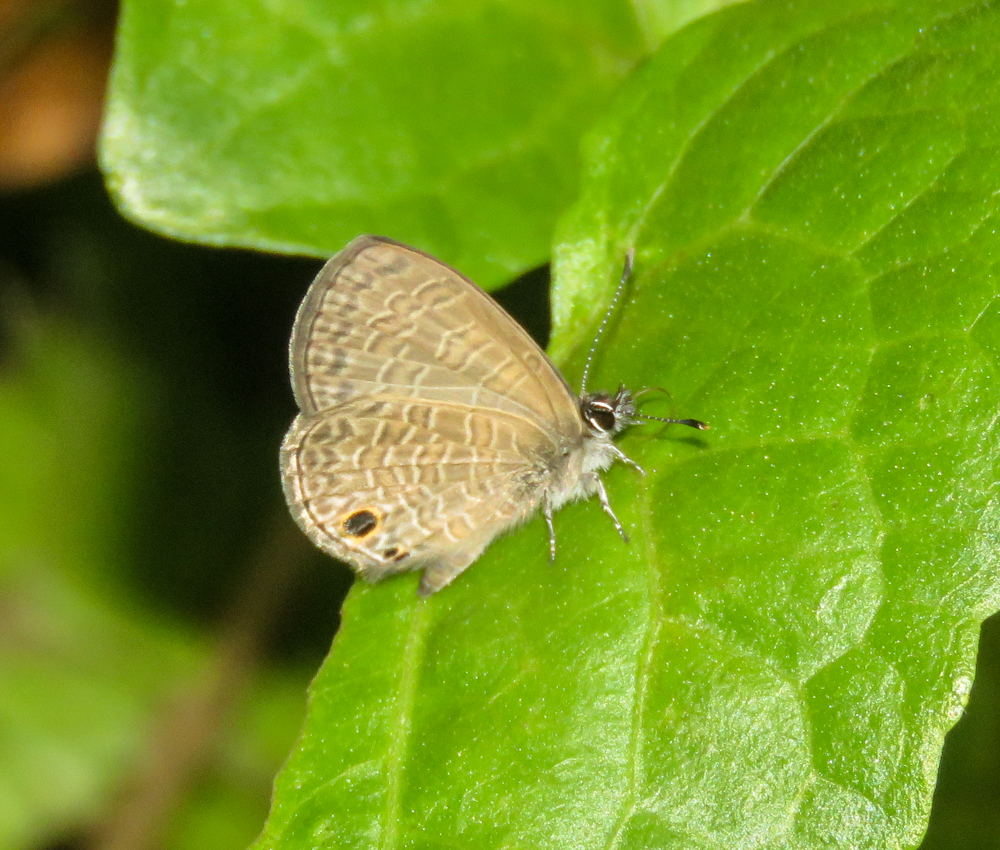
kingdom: Animalia
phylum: Arthropoda
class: Insecta
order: Lepidoptera
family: Lycaenidae
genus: Prosotas
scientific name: Prosotas dubiosa
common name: Tailless lineblue
